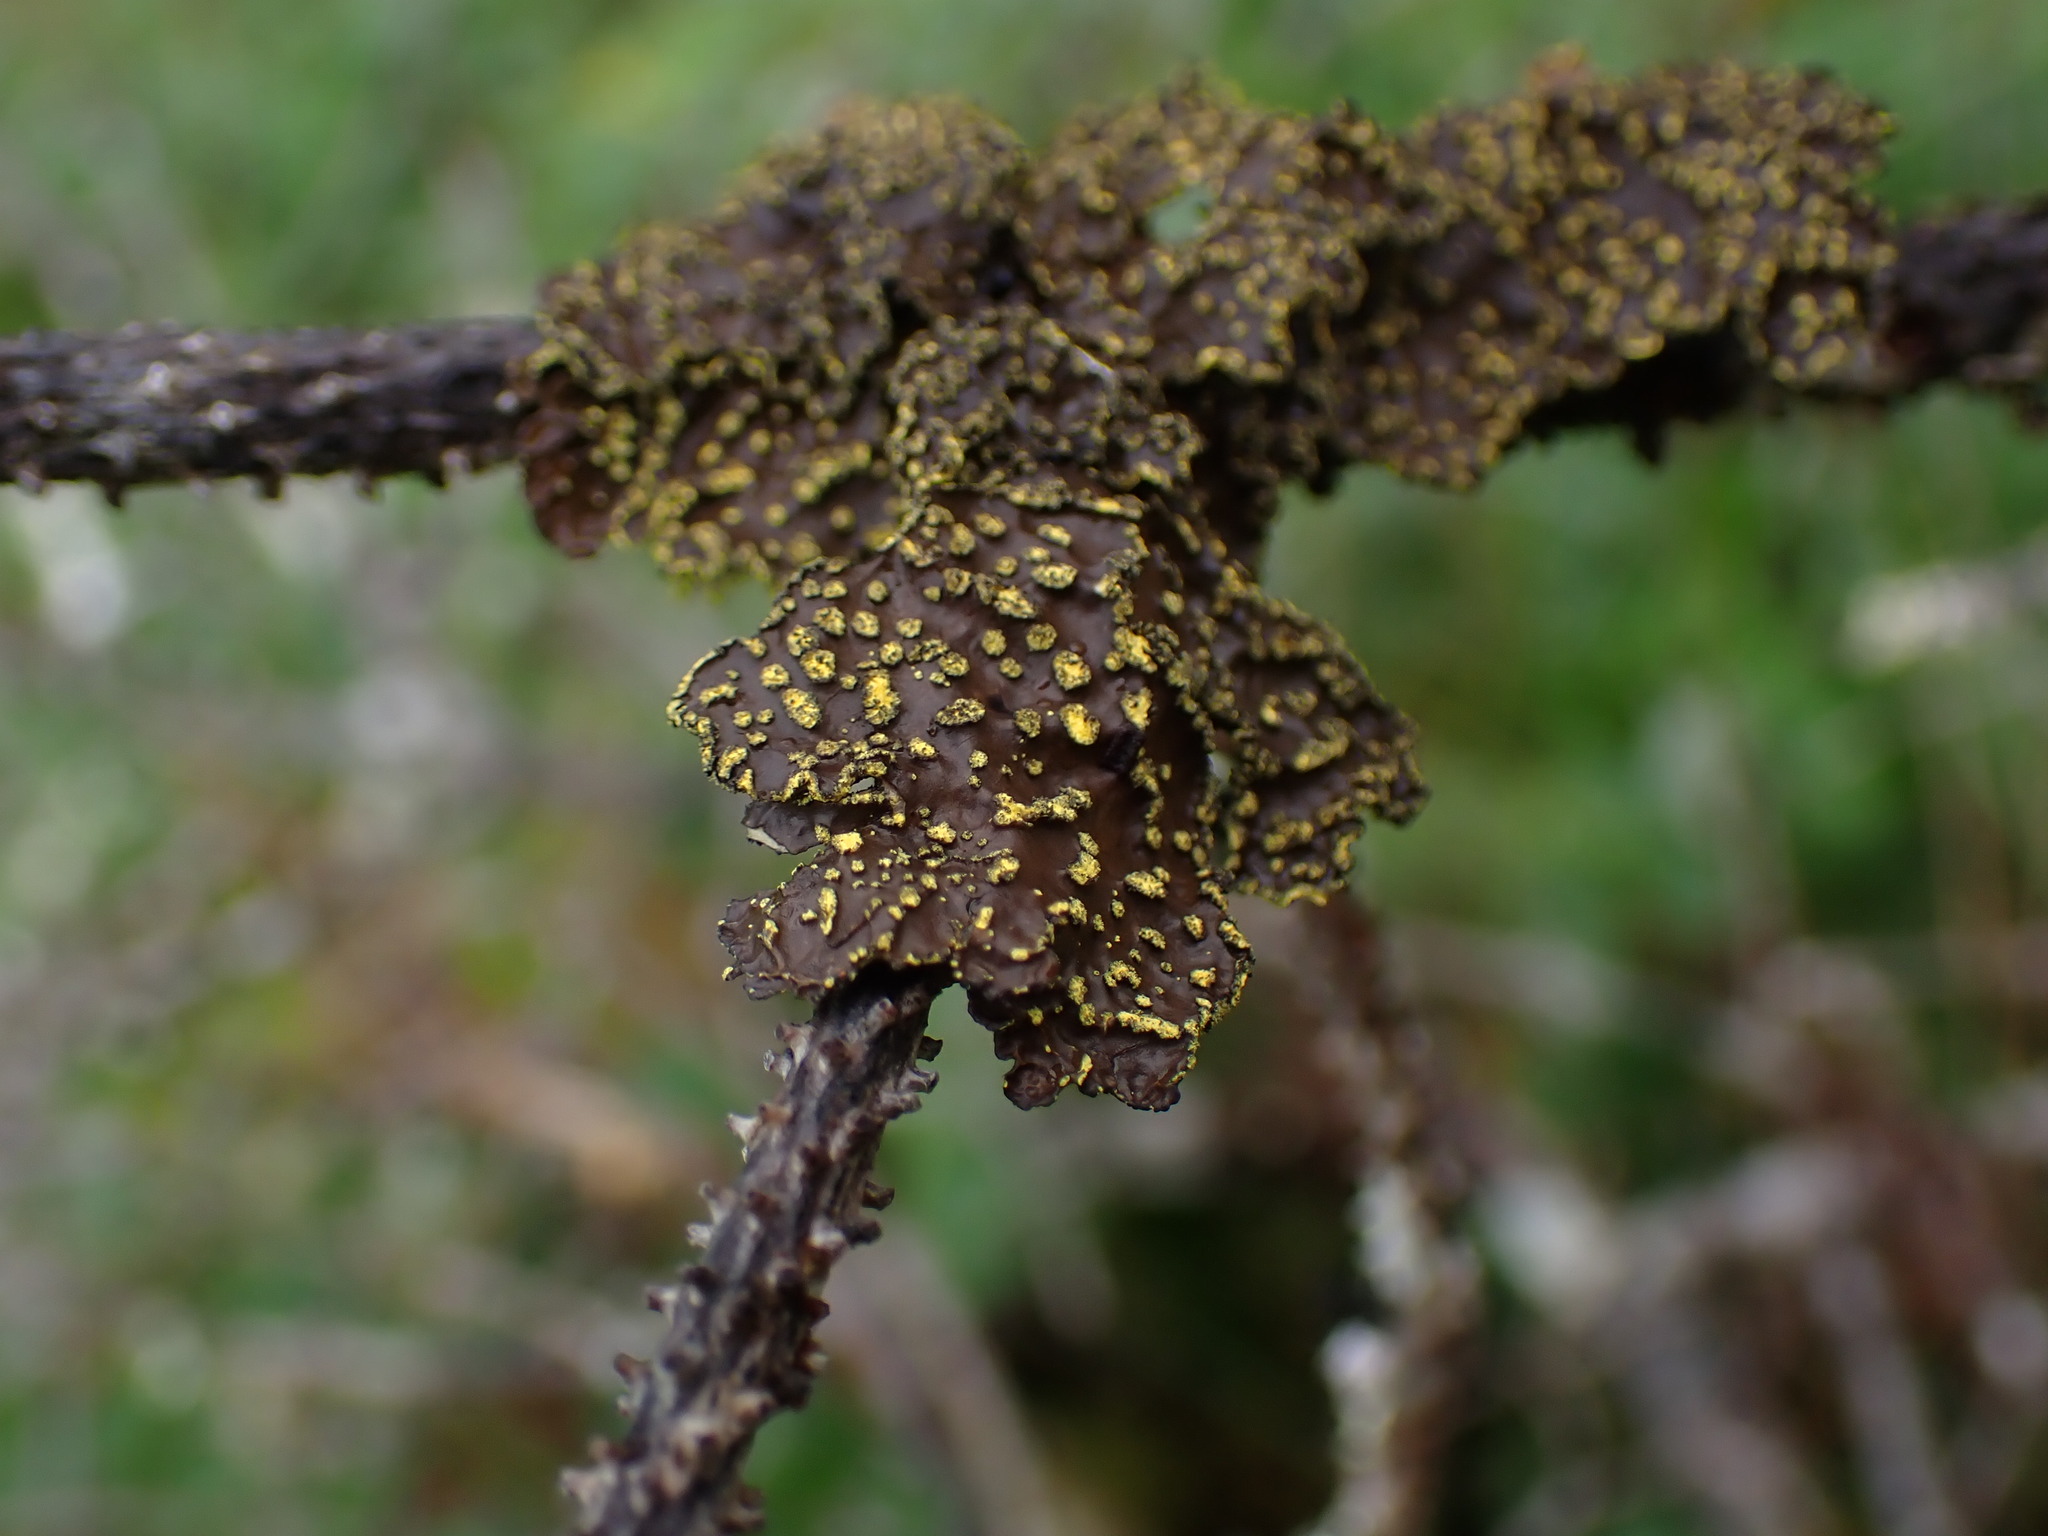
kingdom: Fungi
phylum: Ascomycota
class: Lecanoromycetes
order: Peltigerales
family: Lobariaceae
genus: Pseudocyphellaria
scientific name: Pseudocyphellaria citrina
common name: Golden specklebelly
